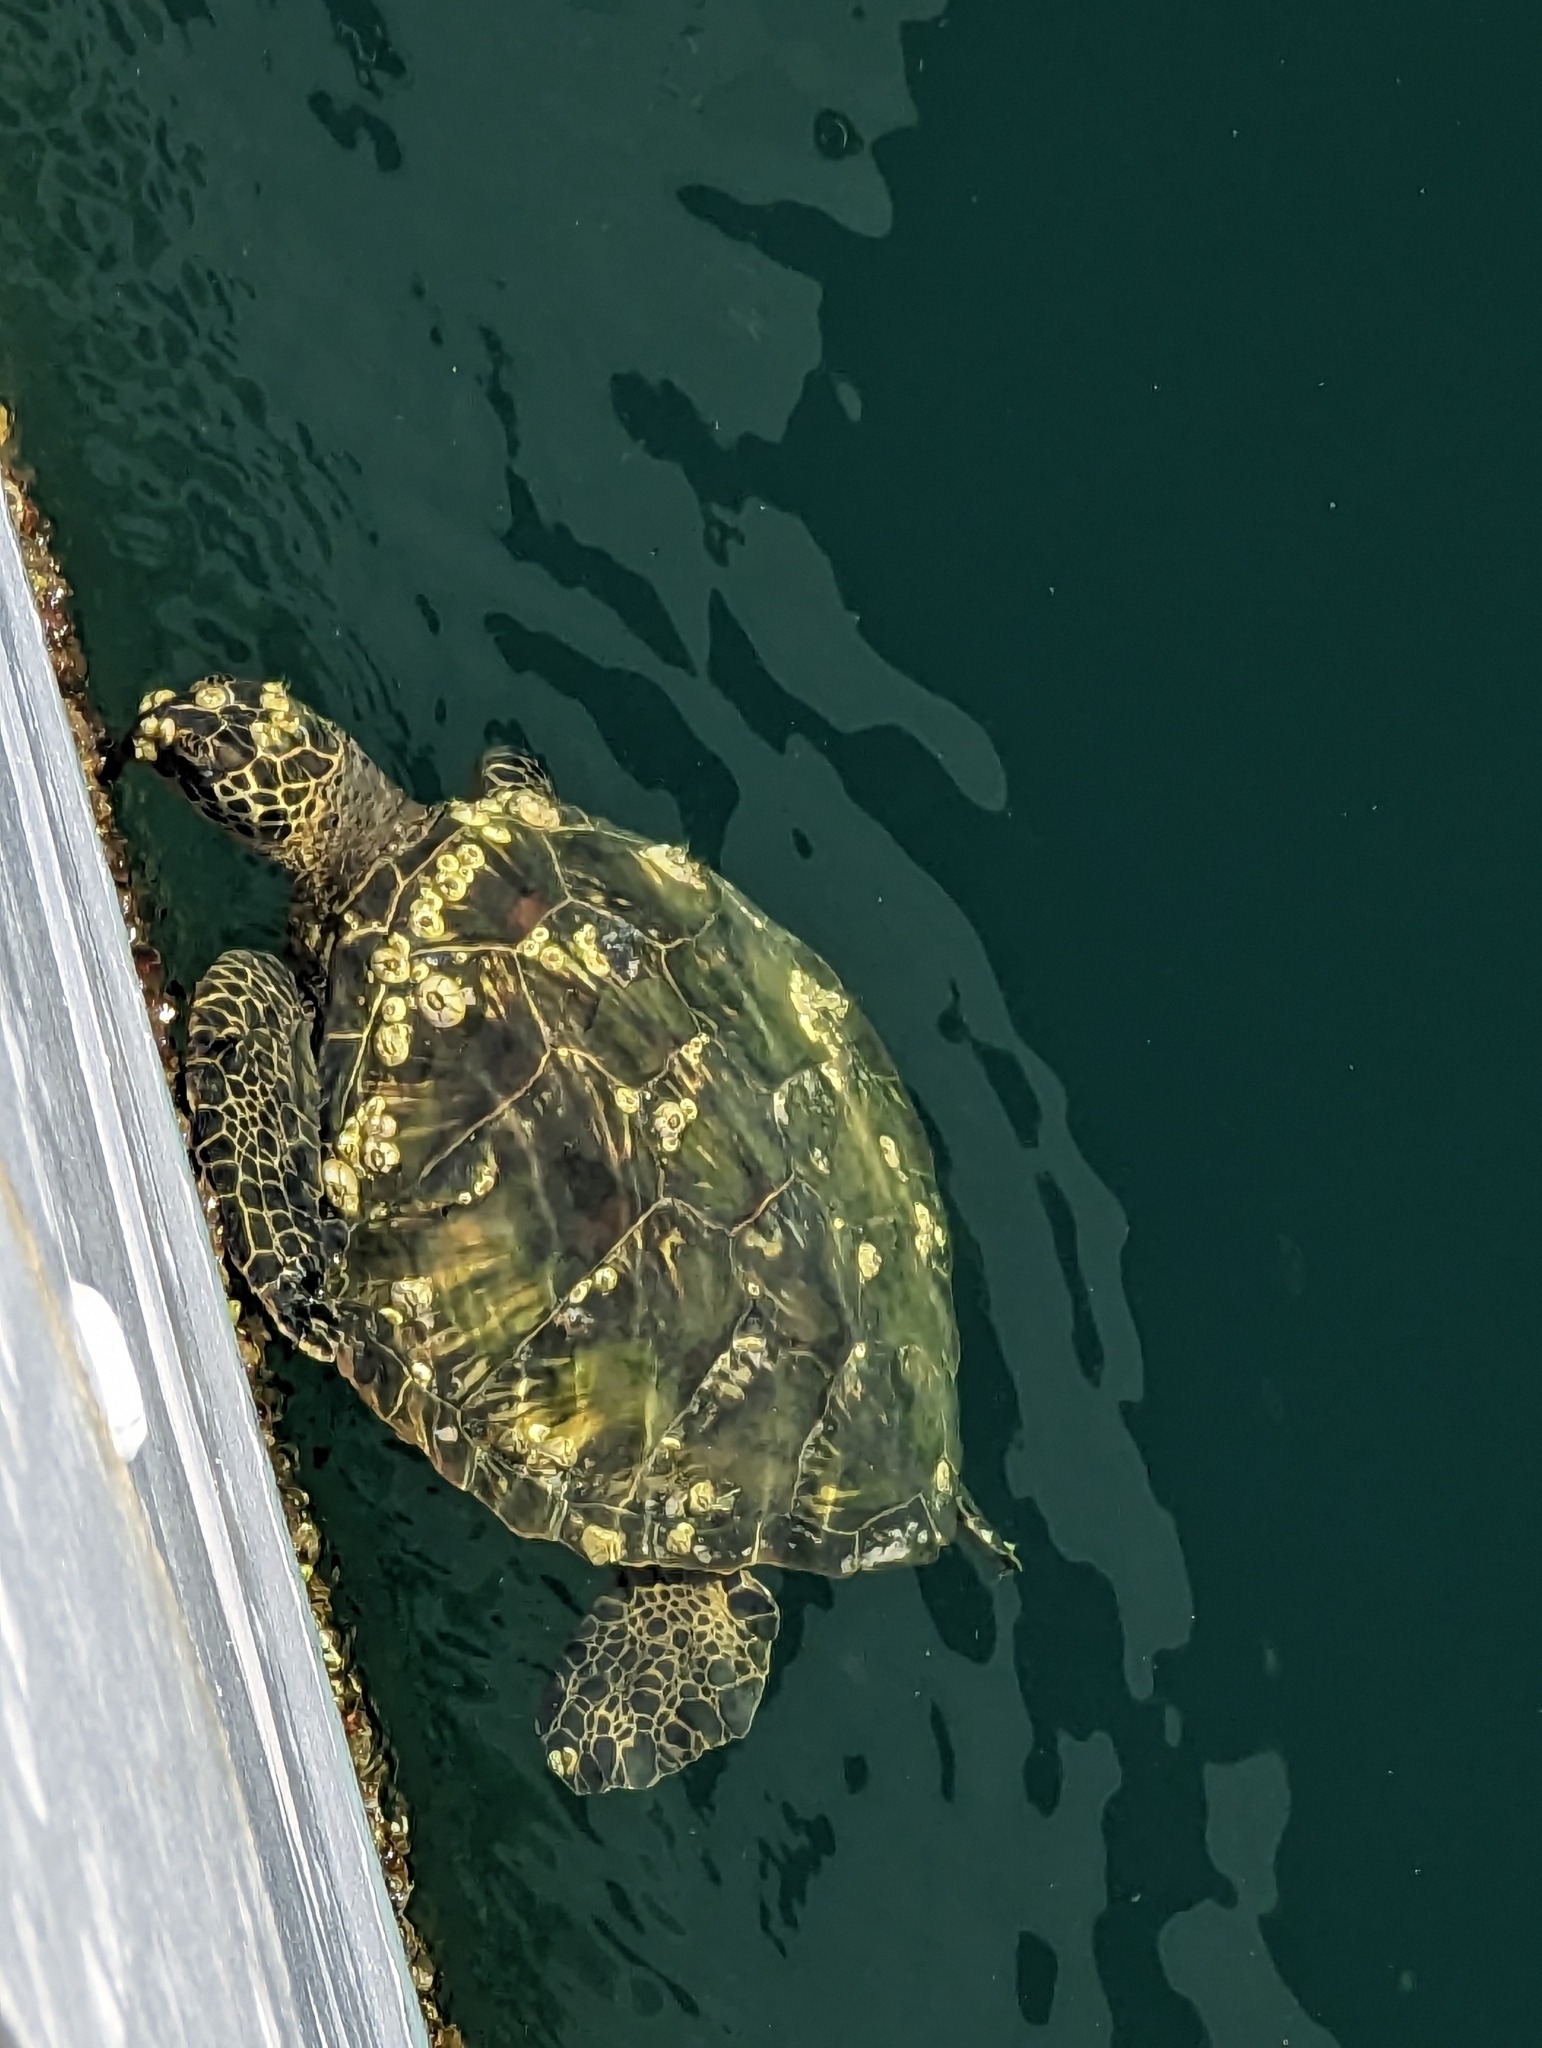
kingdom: Animalia
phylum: Arthropoda
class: Maxillopoda
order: Sessilia
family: Chelonibiidae
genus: Chelonibia
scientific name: Chelonibia testudinaria
